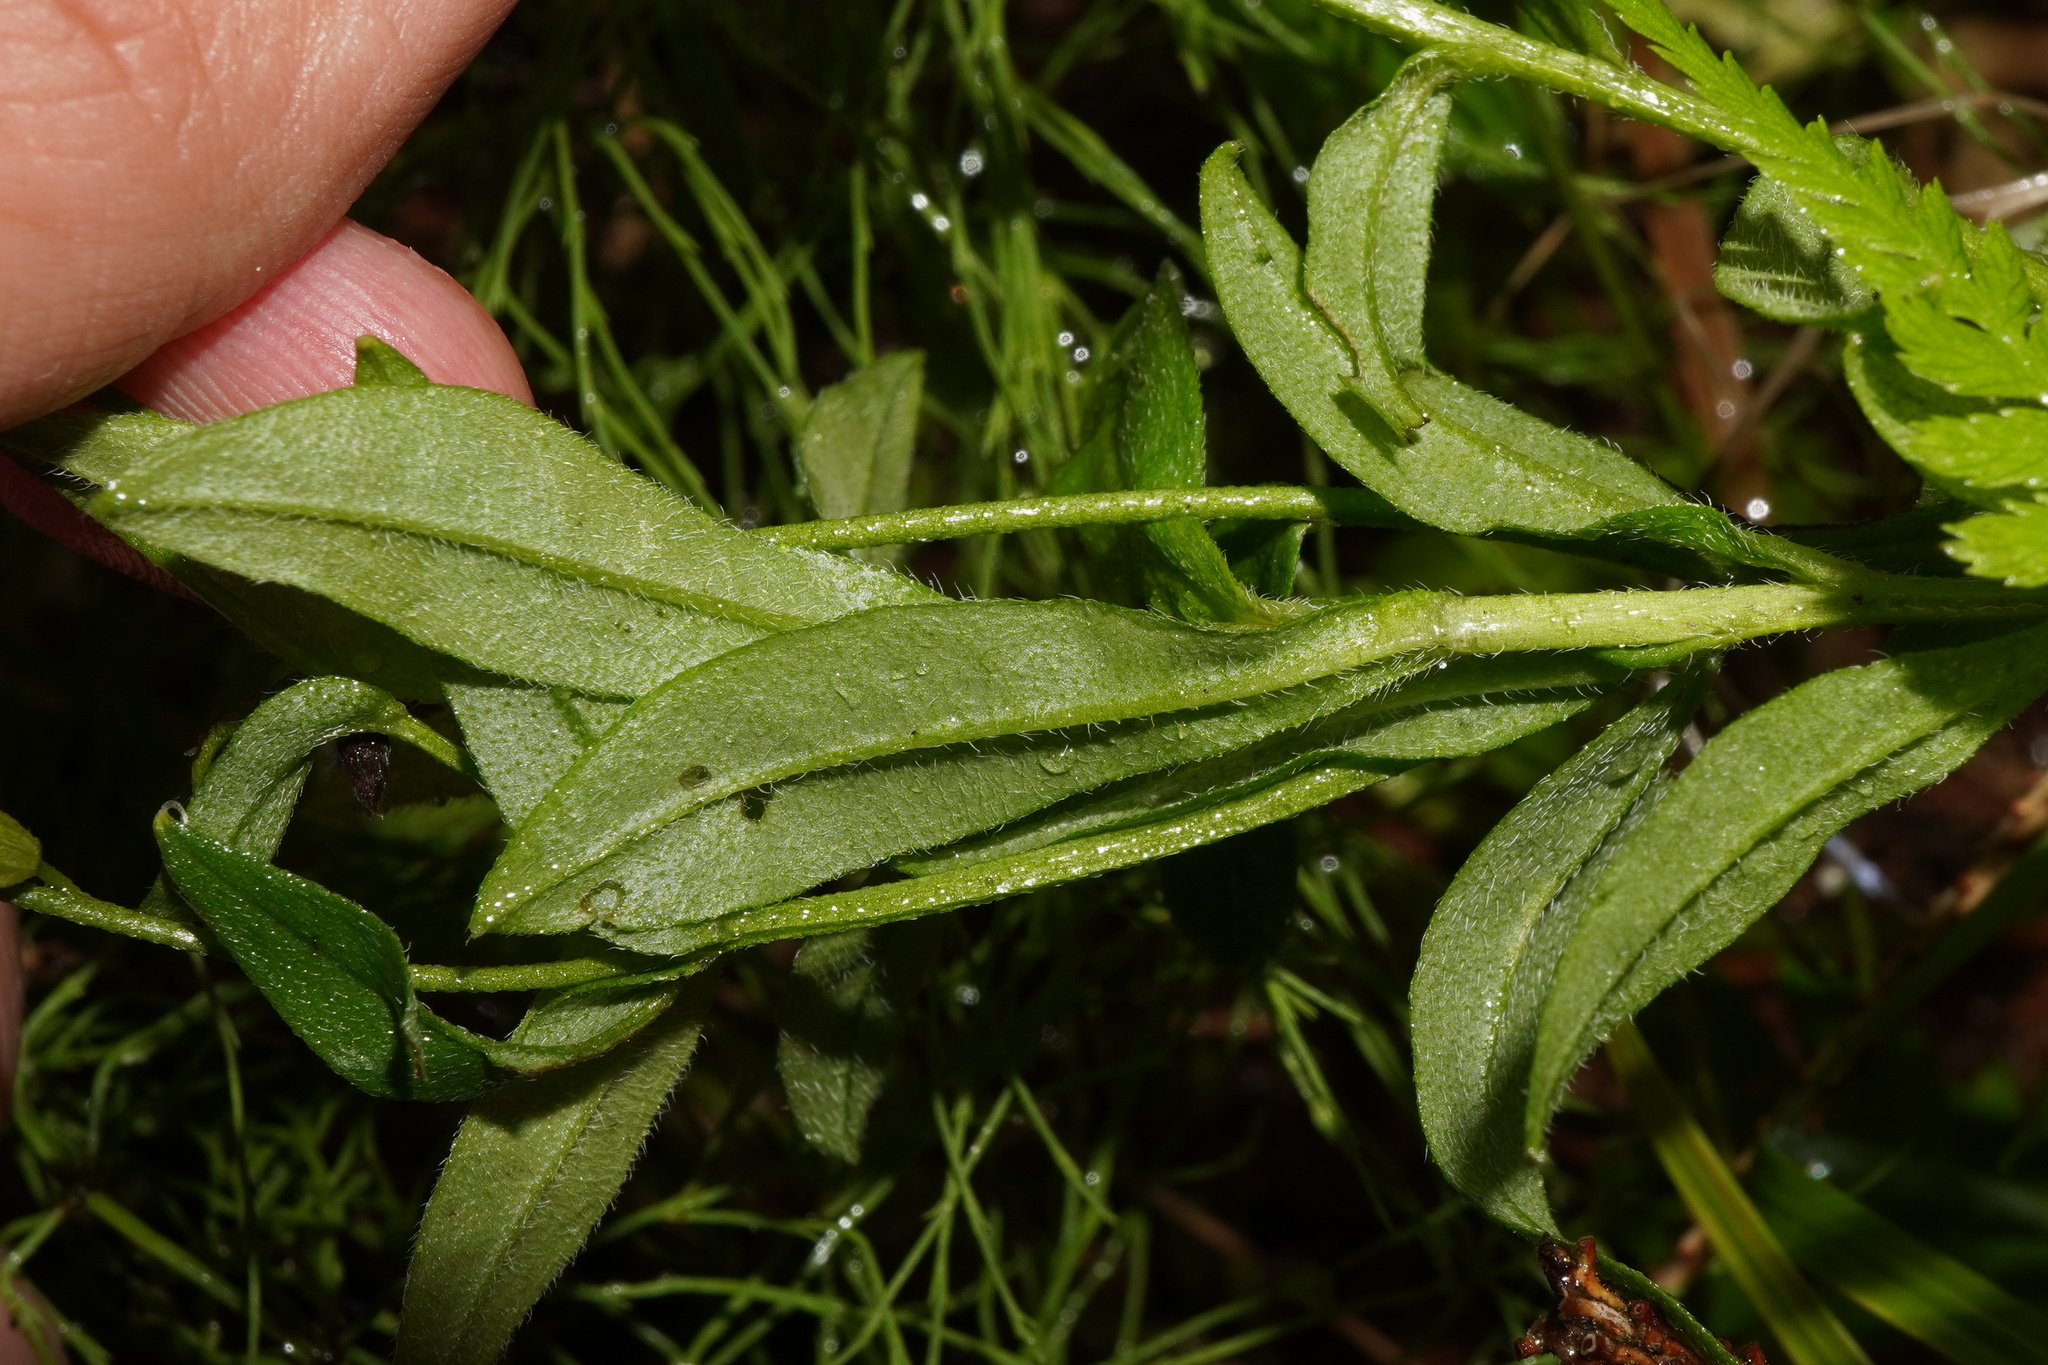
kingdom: Plantae
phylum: Tracheophyta
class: Magnoliopsida
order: Boraginales
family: Boraginaceae
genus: Myosotis
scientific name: Myosotis scorpioides
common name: Water forget-me-not
